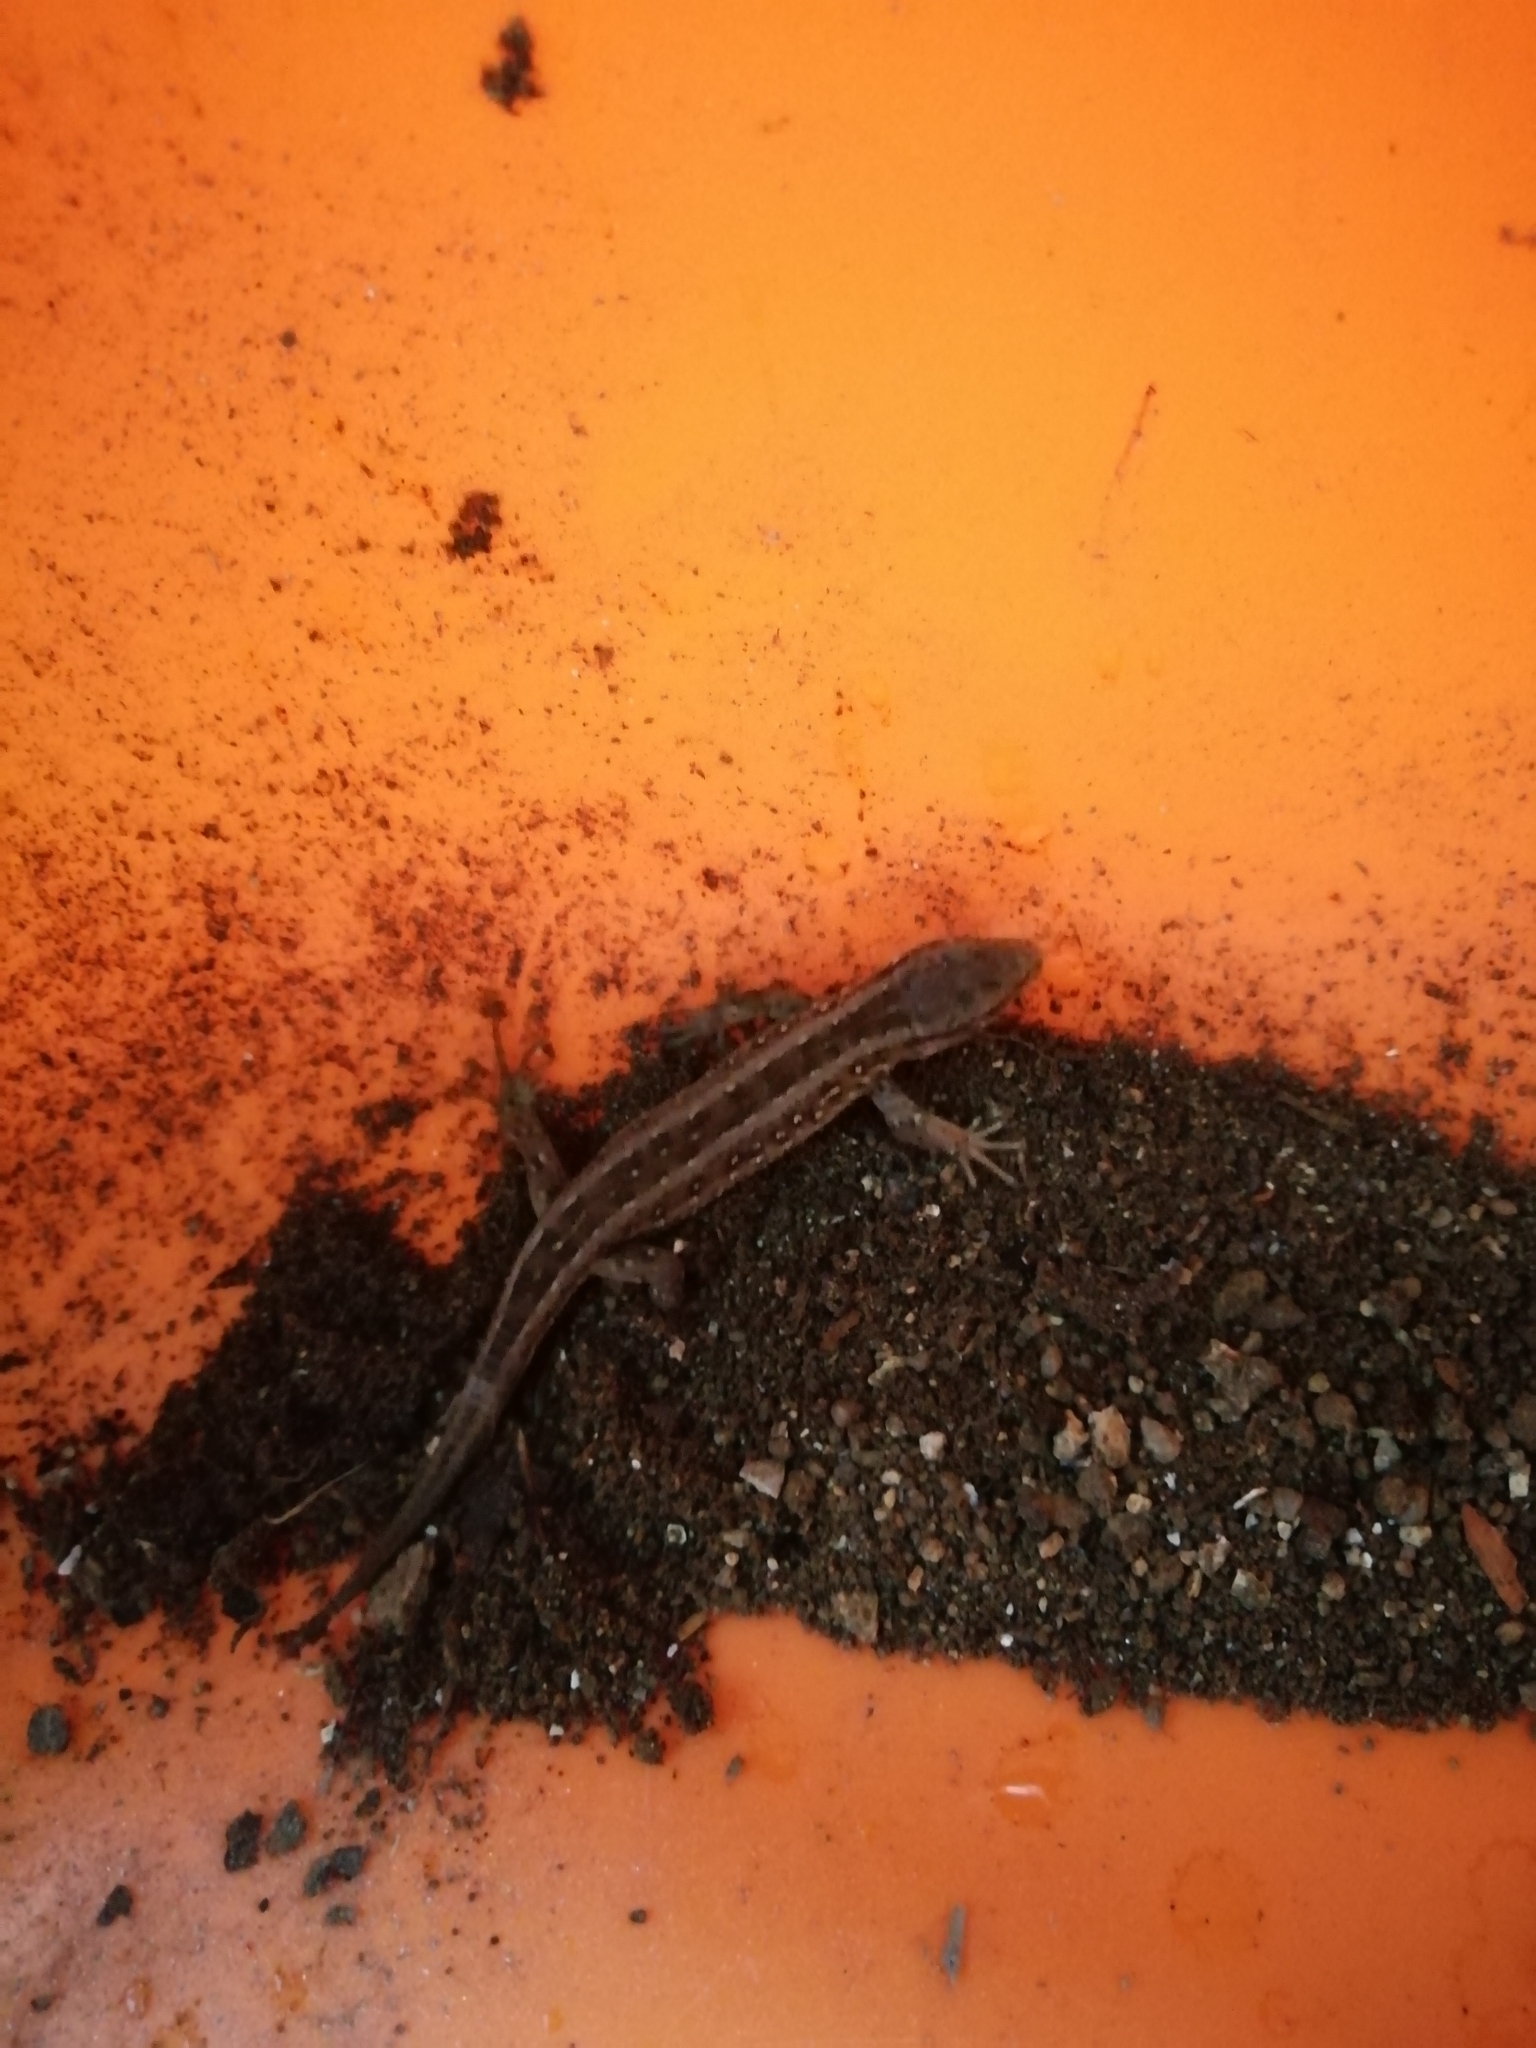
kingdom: Animalia
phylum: Chordata
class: Squamata
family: Lacertidae
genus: Lacerta
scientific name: Lacerta agilis
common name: Sand lizard
